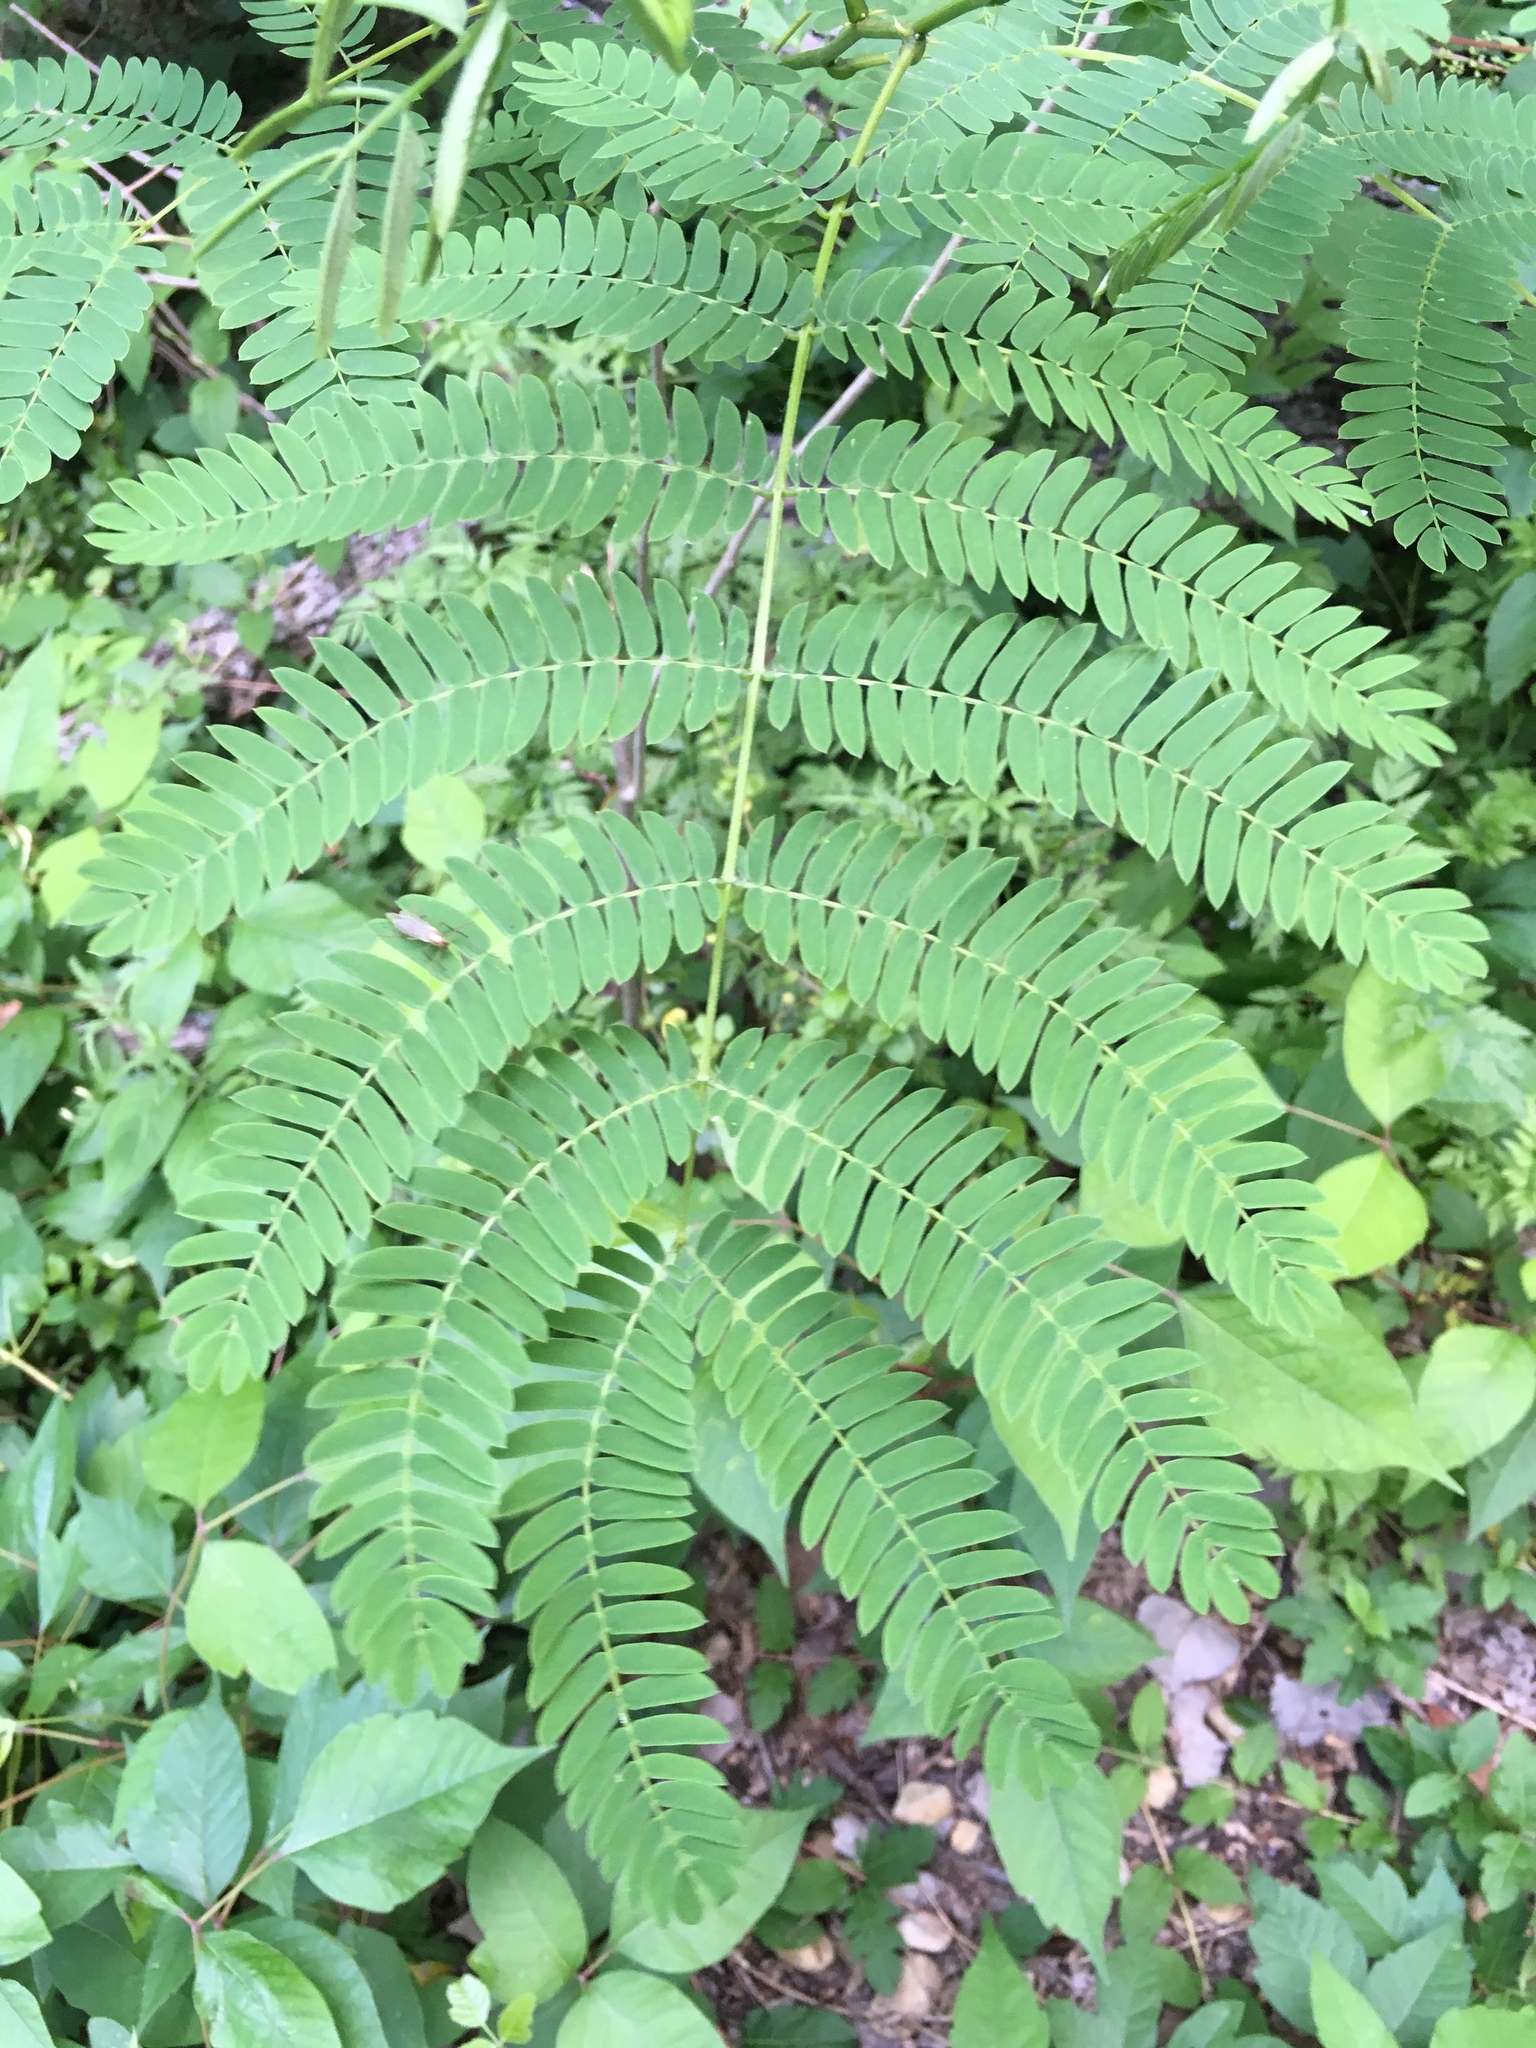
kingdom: Plantae
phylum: Tracheophyta
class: Magnoliopsida
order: Fabales
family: Fabaceae
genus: Albizia
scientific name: Albizia julibrissin
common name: Silktree
